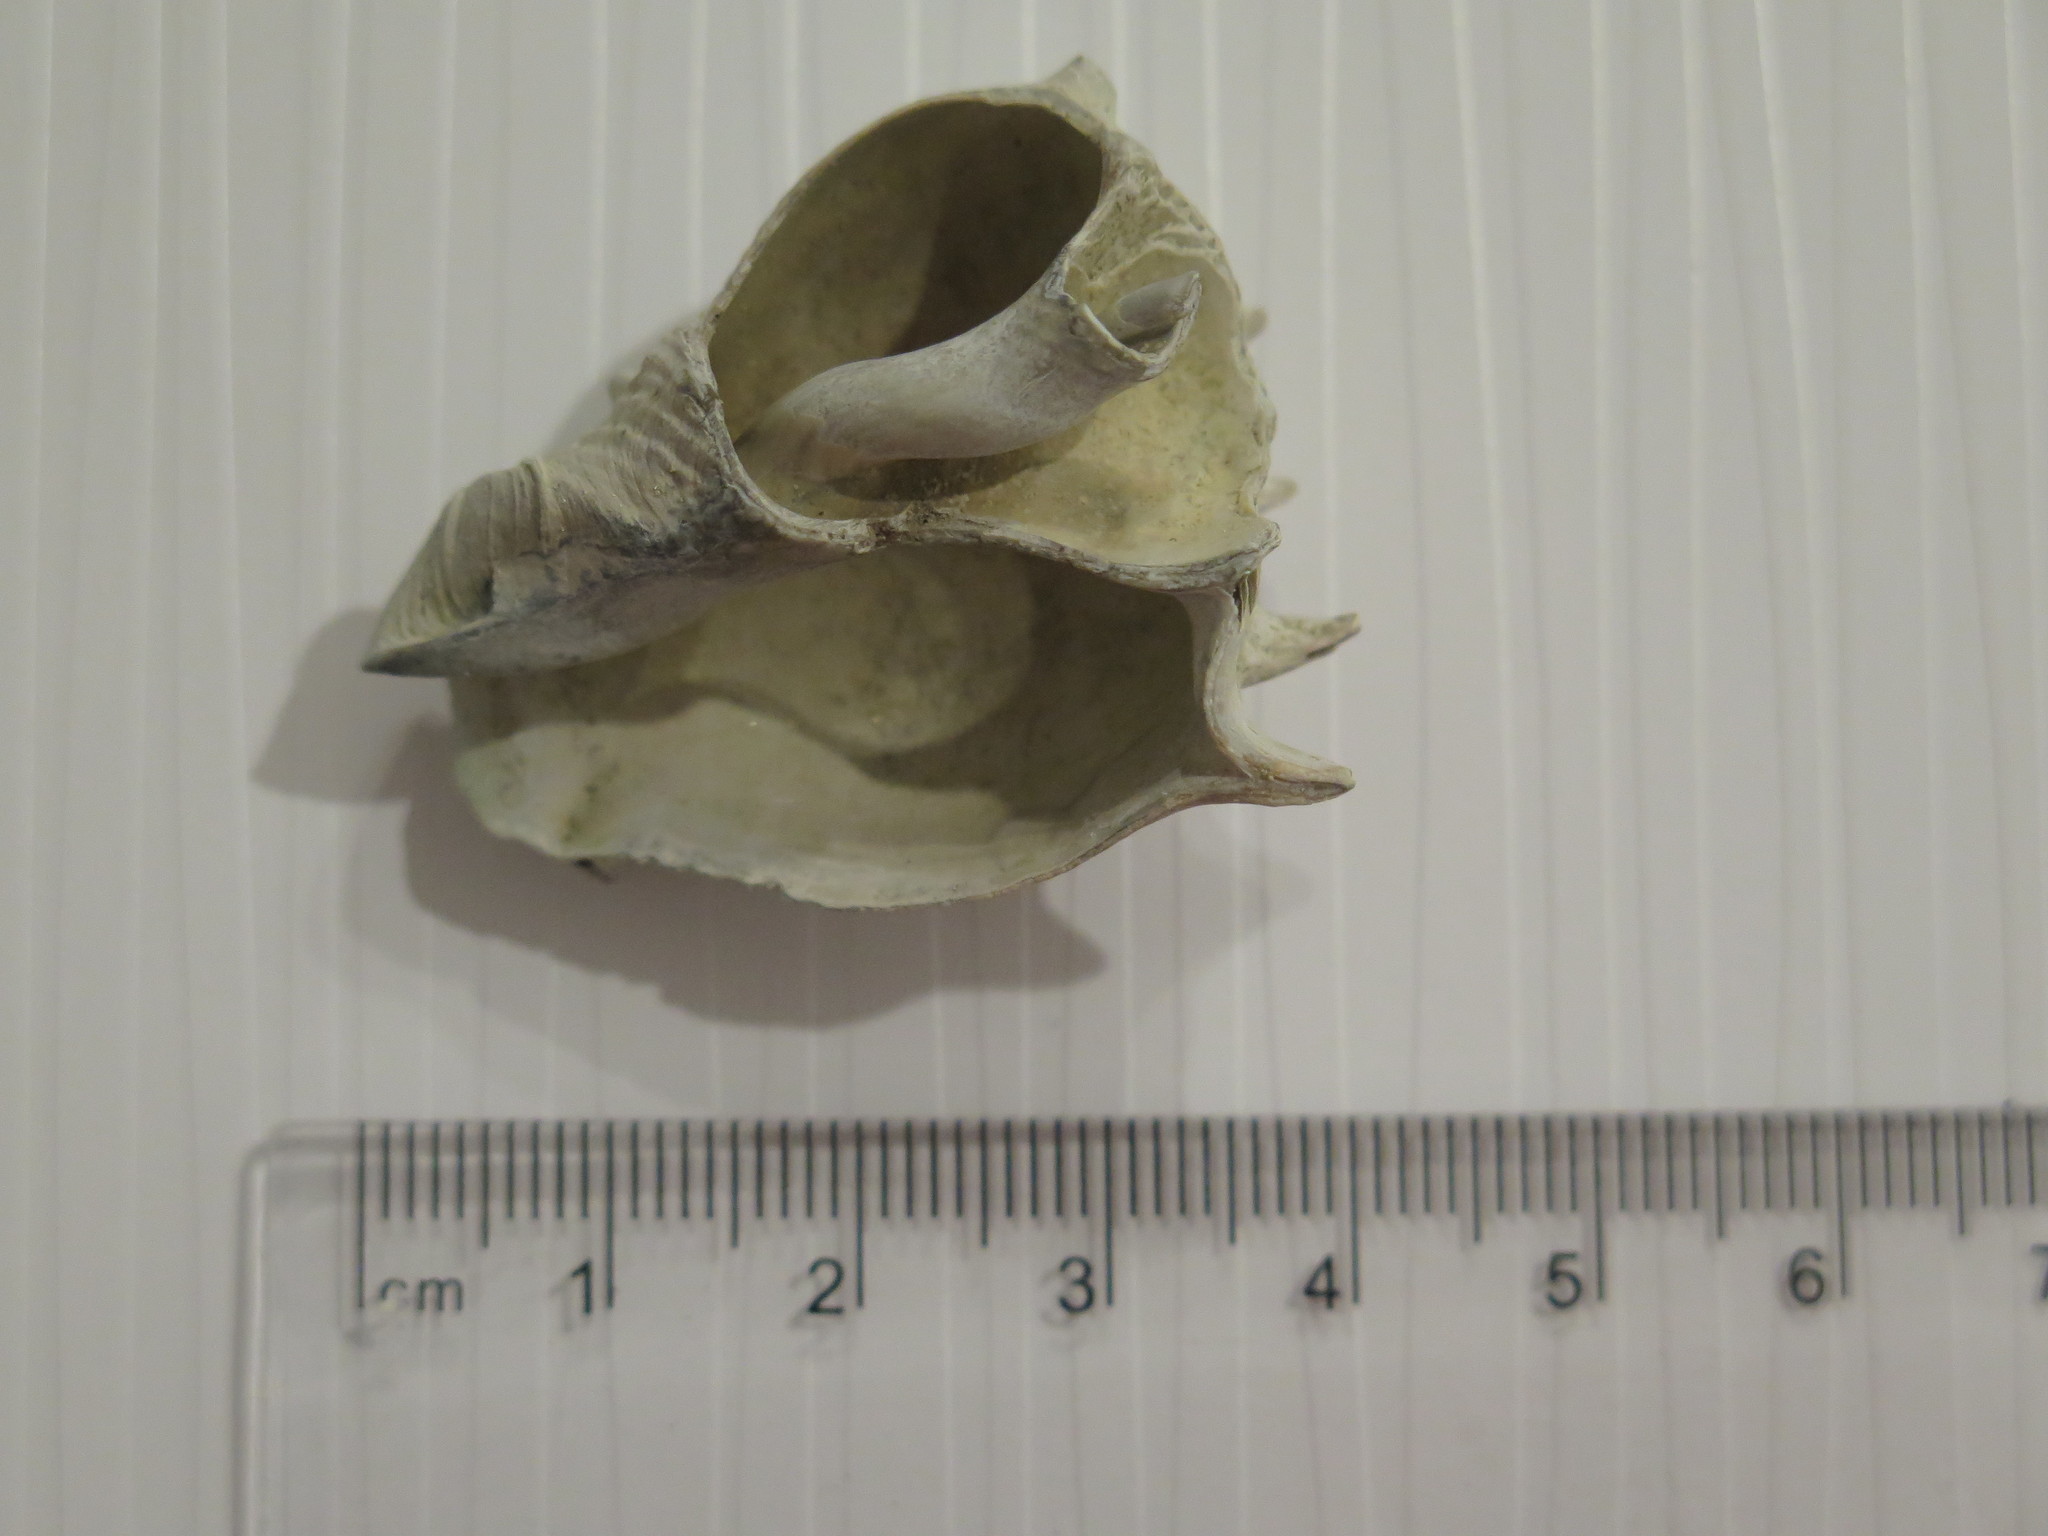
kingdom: Animalia
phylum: Mollusca
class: Gastropoda
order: Neogastropoda
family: Melongenidae
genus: Melongena
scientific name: Melongena corona
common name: American crown conch
